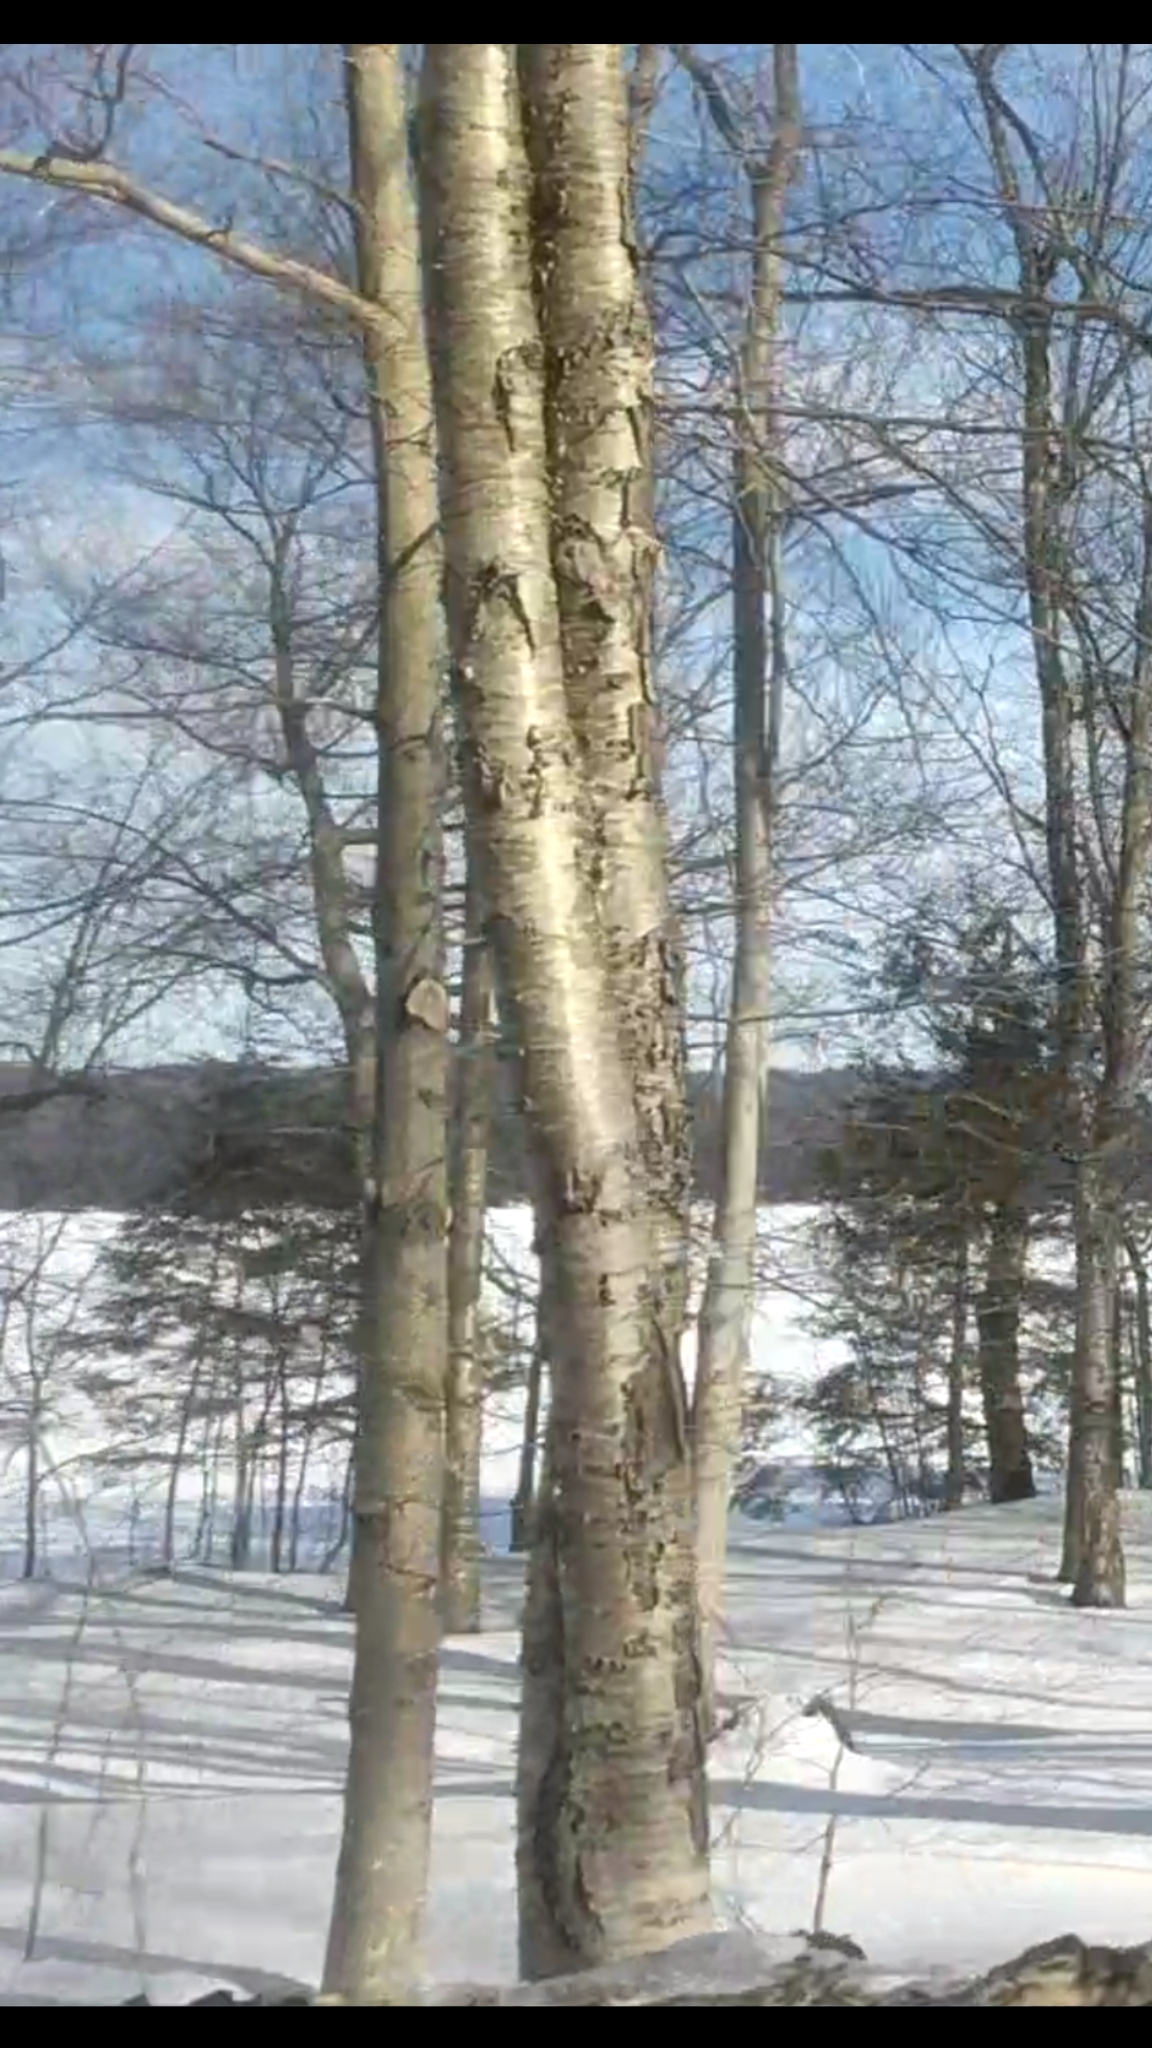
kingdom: Plantae
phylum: Tracheophyta
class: Magnoliopsida
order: Fagales
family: Betulaceae
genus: Betula
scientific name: Betula alleghaniensis
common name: Yellow birch
